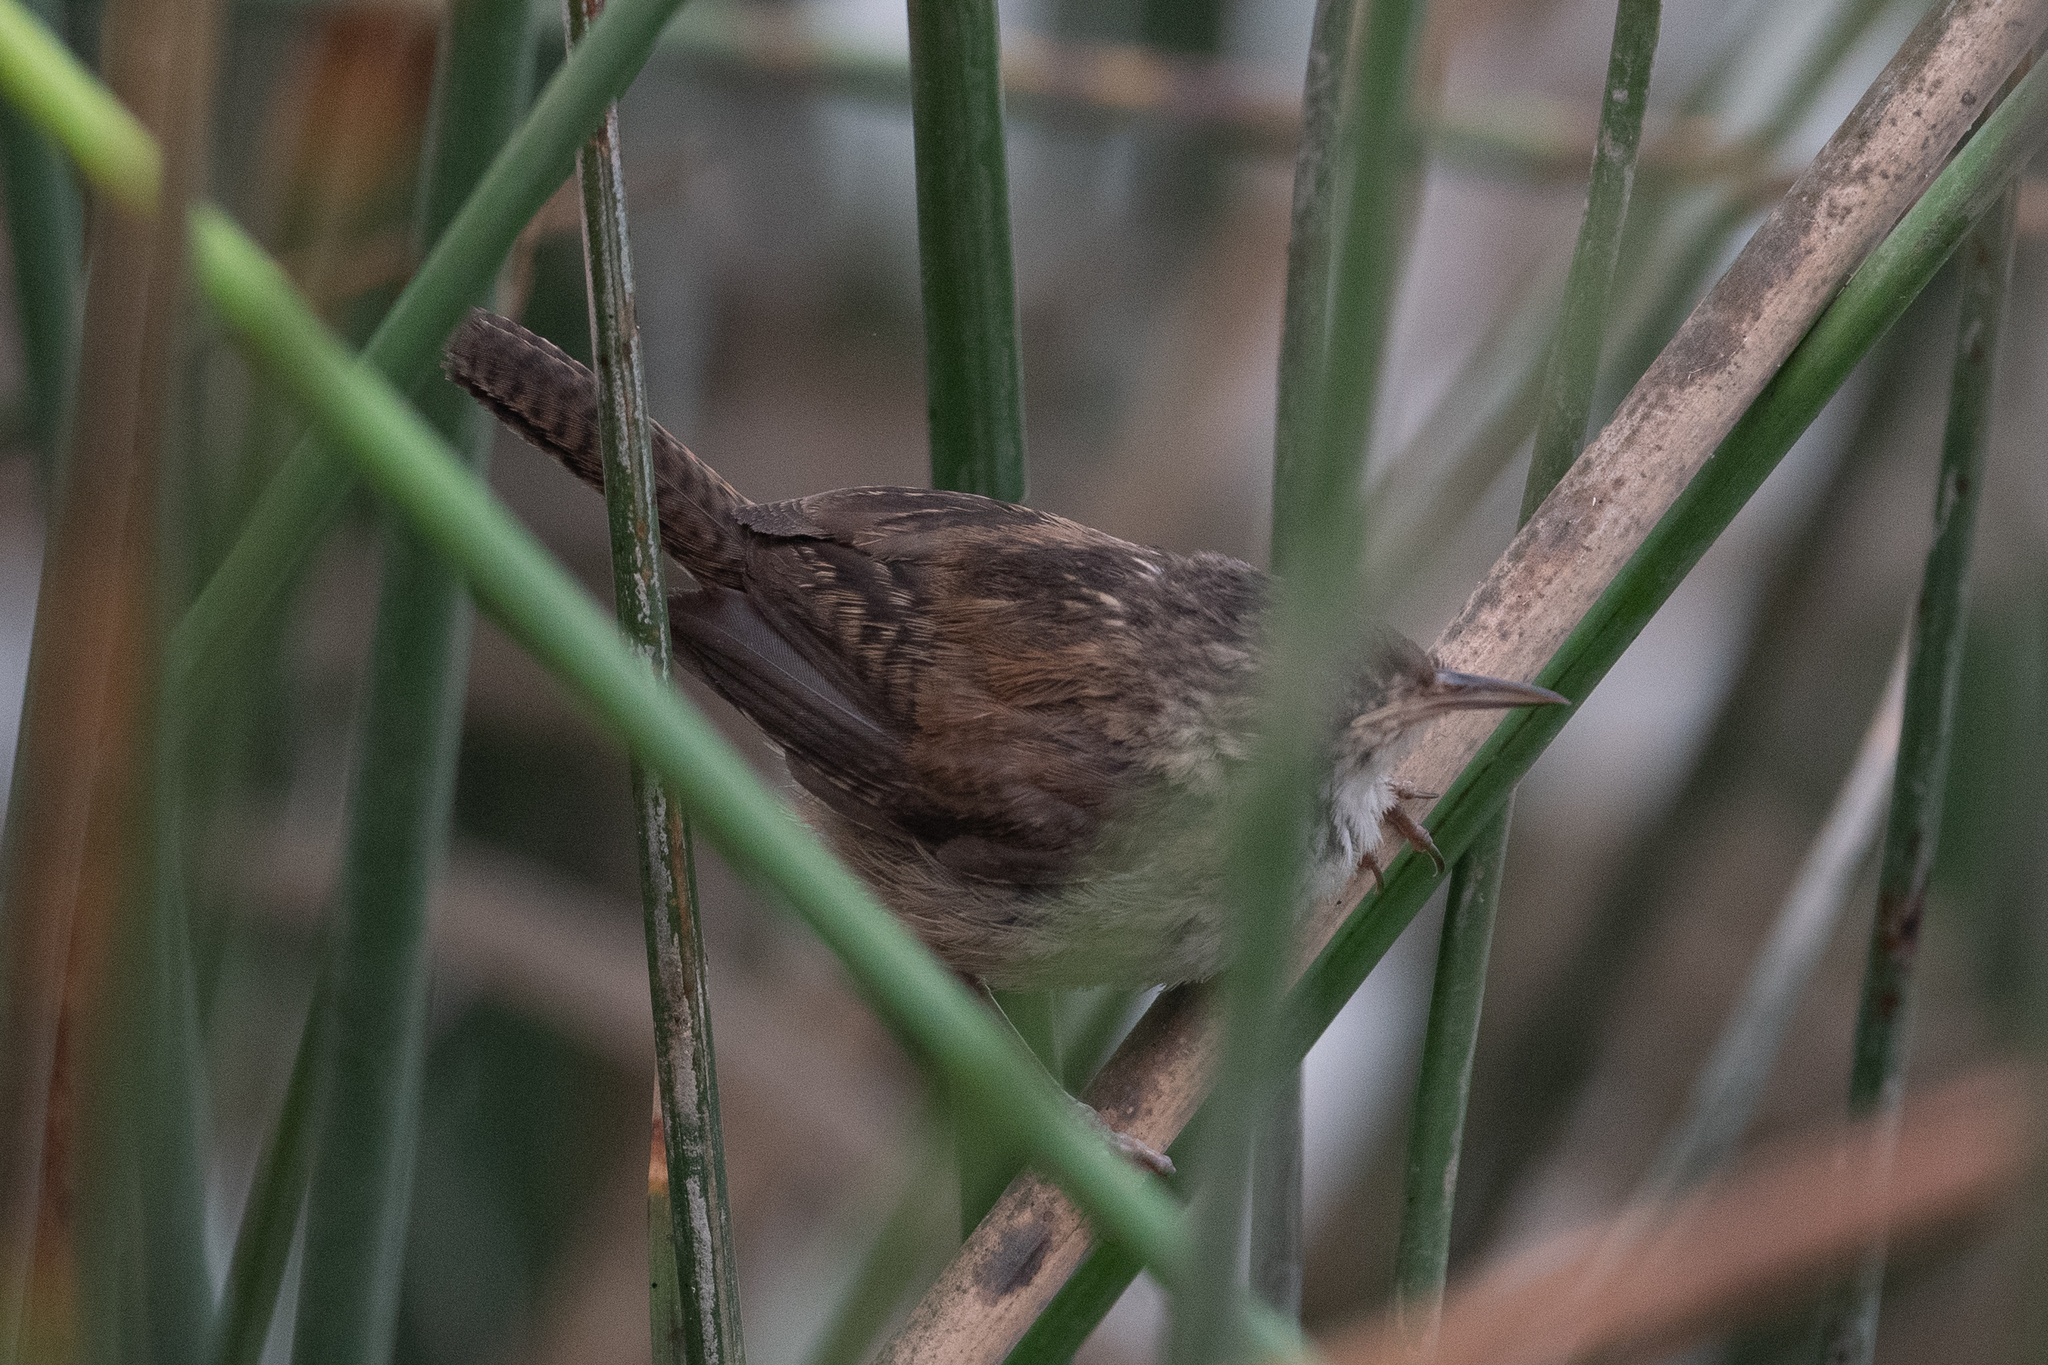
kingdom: Animalia
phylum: Chordata
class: Aves
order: Passeriformes
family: Troglodytidae
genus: Cistothorus
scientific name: Cistothorus palustris
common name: Marsh wren
